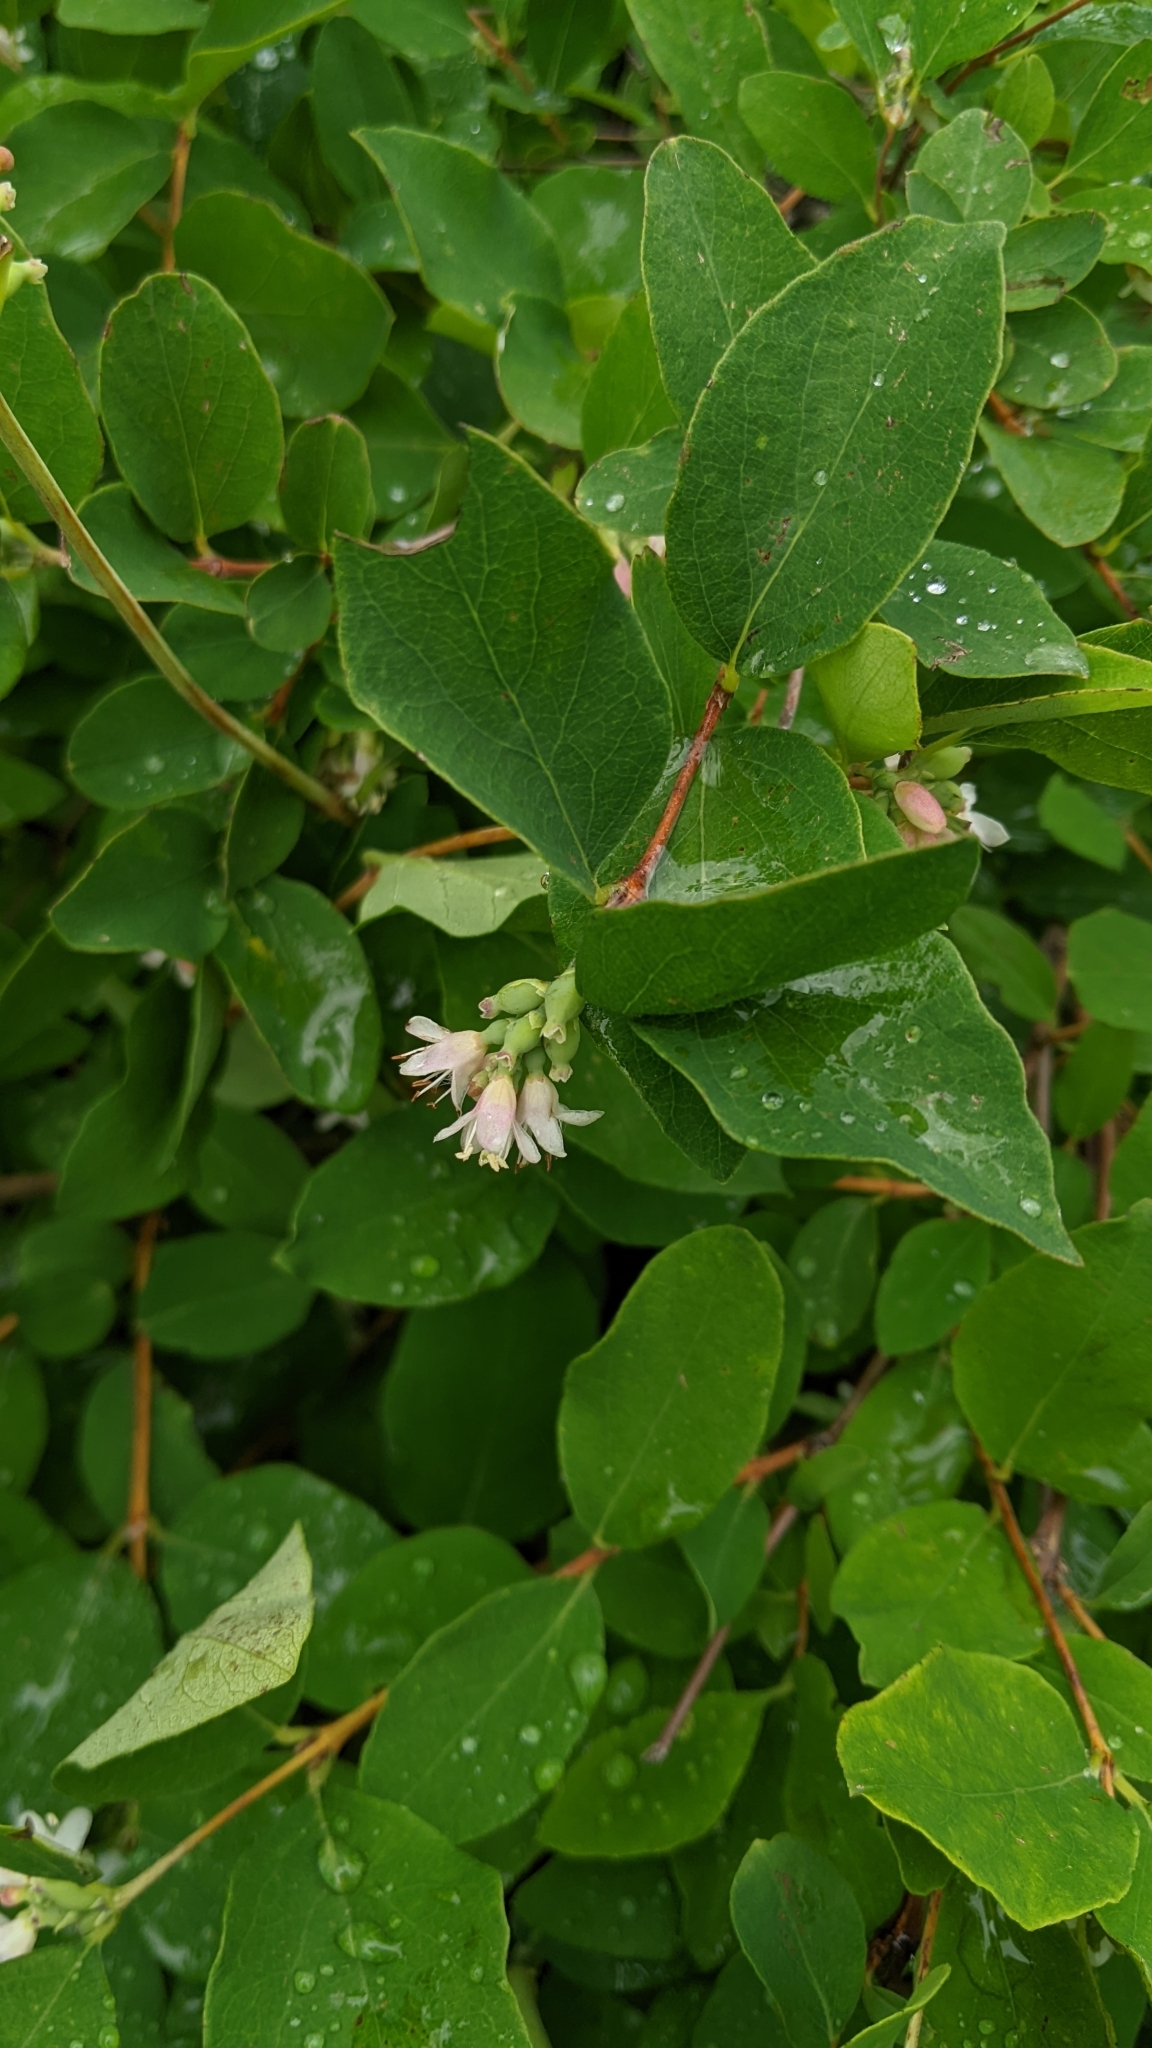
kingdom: Plantae
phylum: Tracheophyta
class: Magnoliopsida
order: Dipsacales
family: Caprifoliaceae
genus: Symphoricarpos
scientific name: Symphoricarpos occidentalis
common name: Wolfberry
